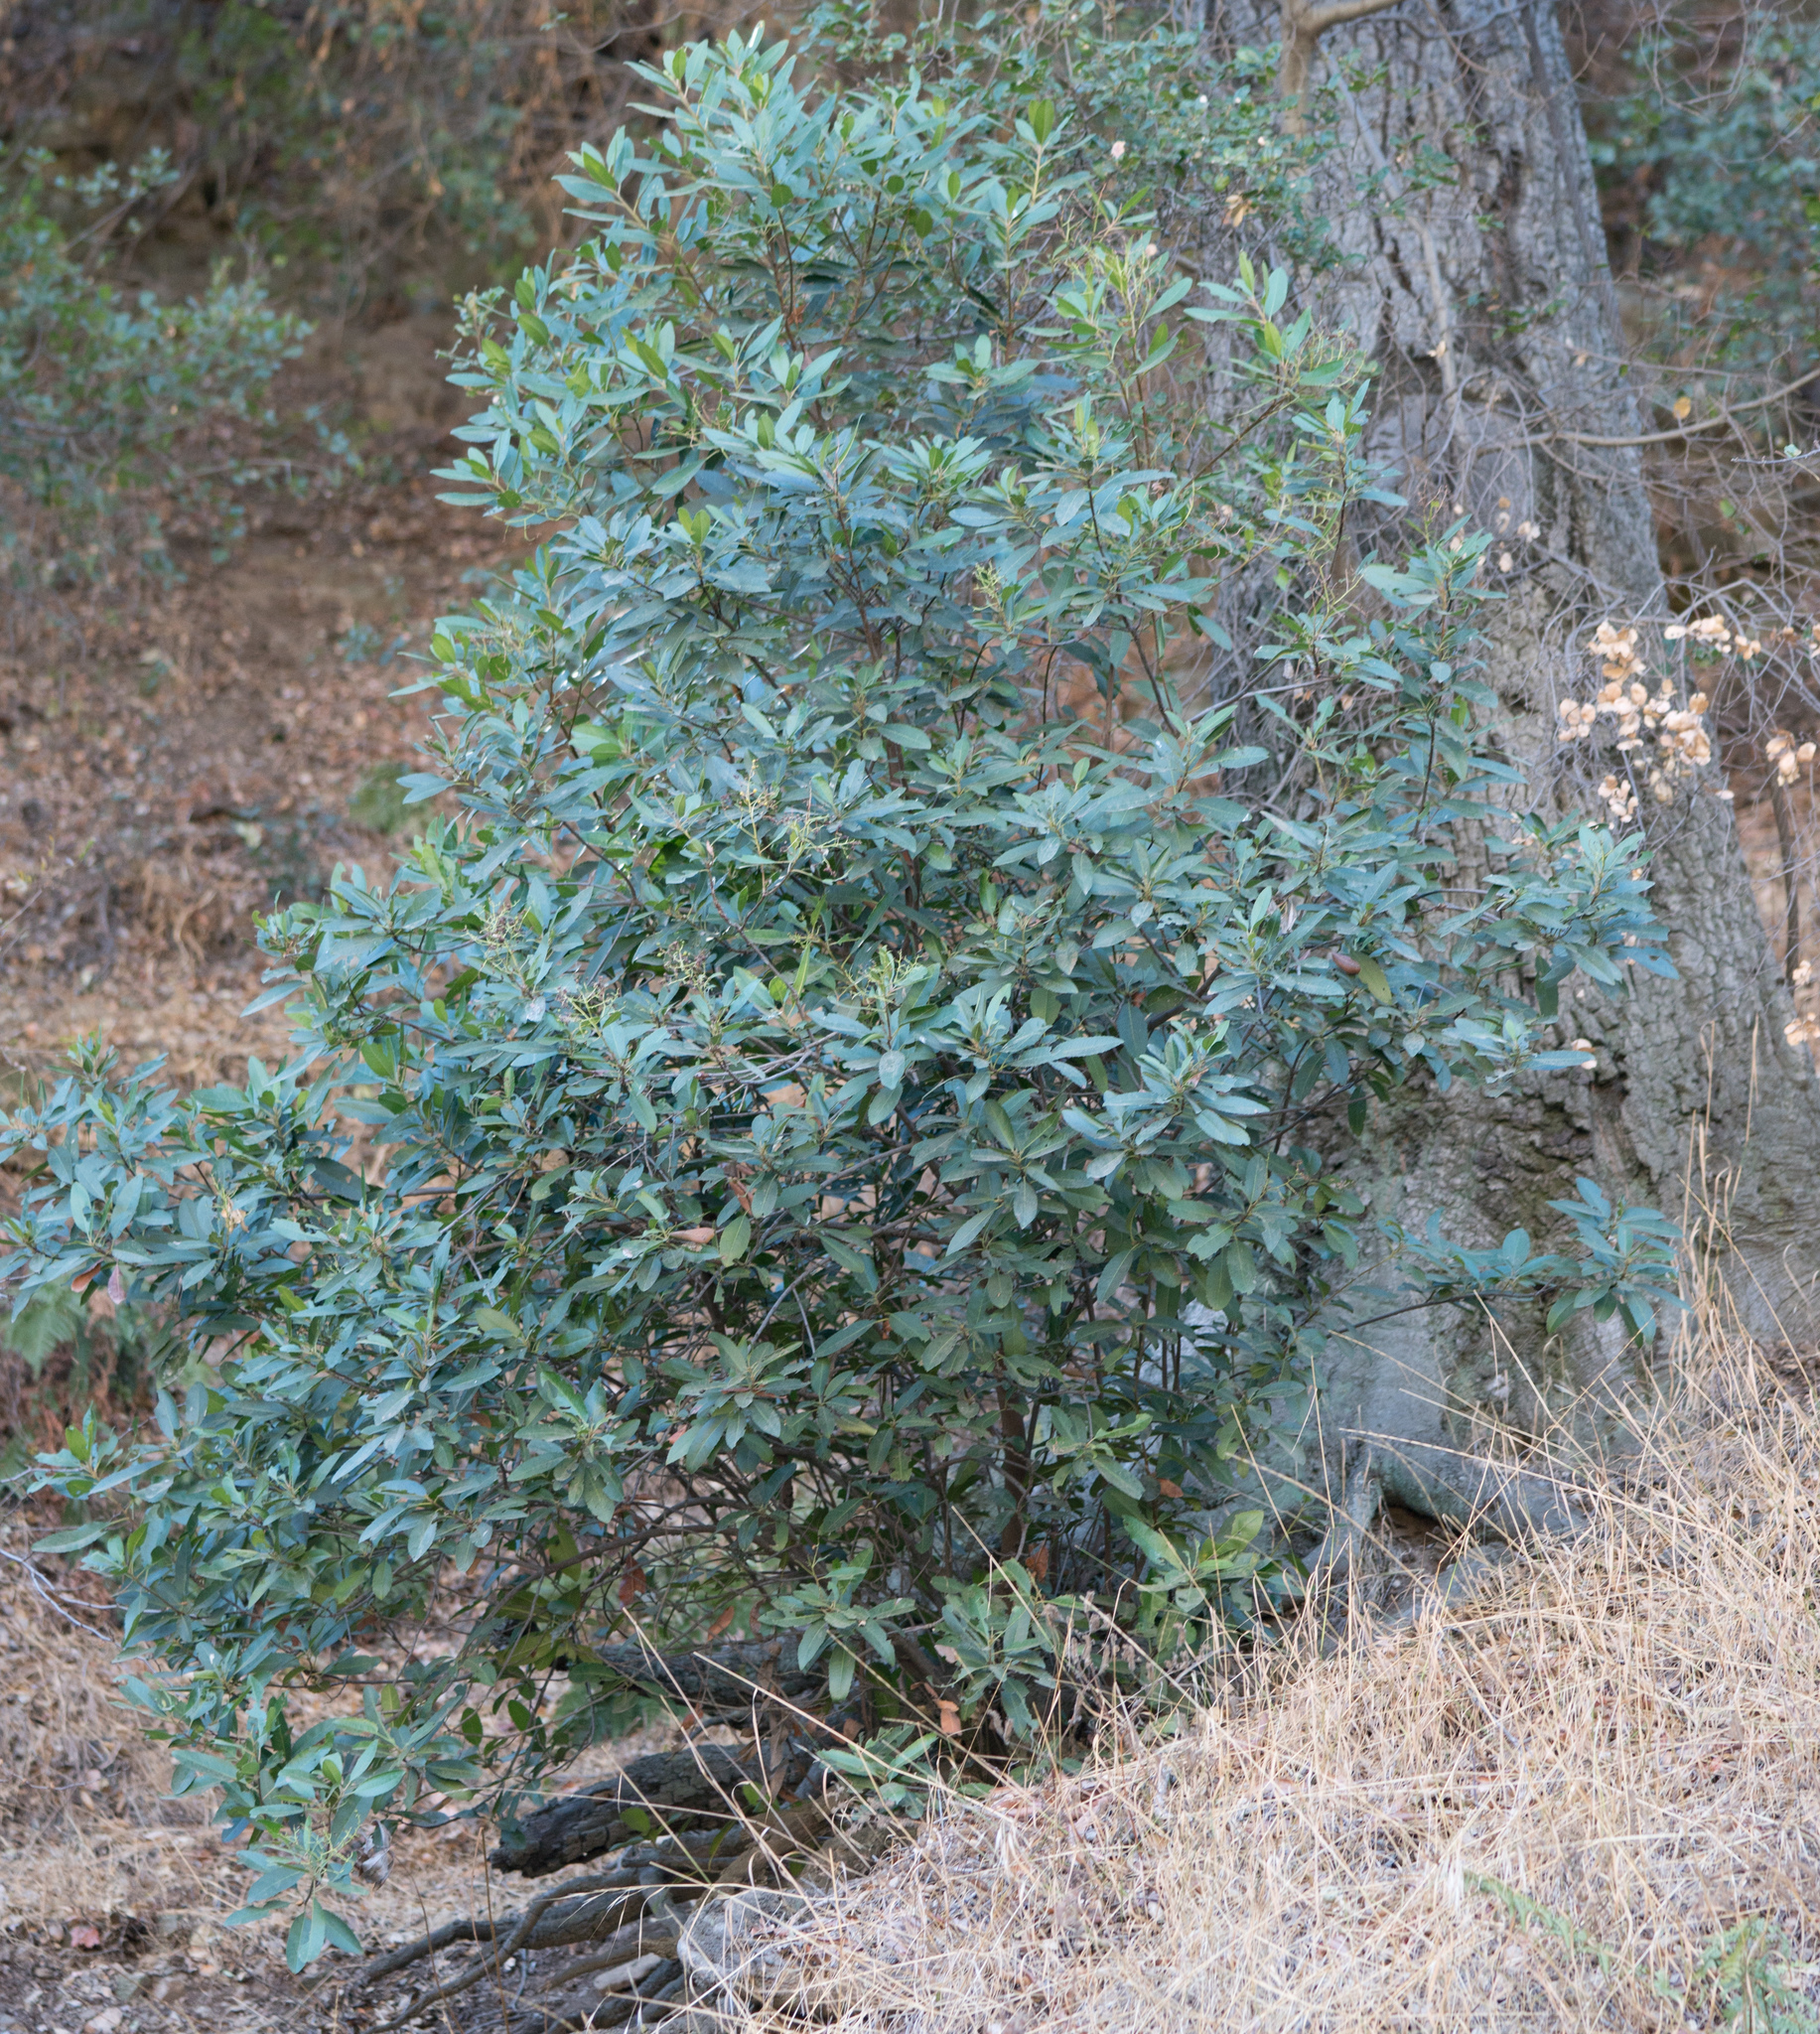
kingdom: Plantae
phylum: Tracheophyta
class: Magnoliopsida
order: Rosales
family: Rosaceae
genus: Heteromeles
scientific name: Heteromeles arbutifolia
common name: California-holly
